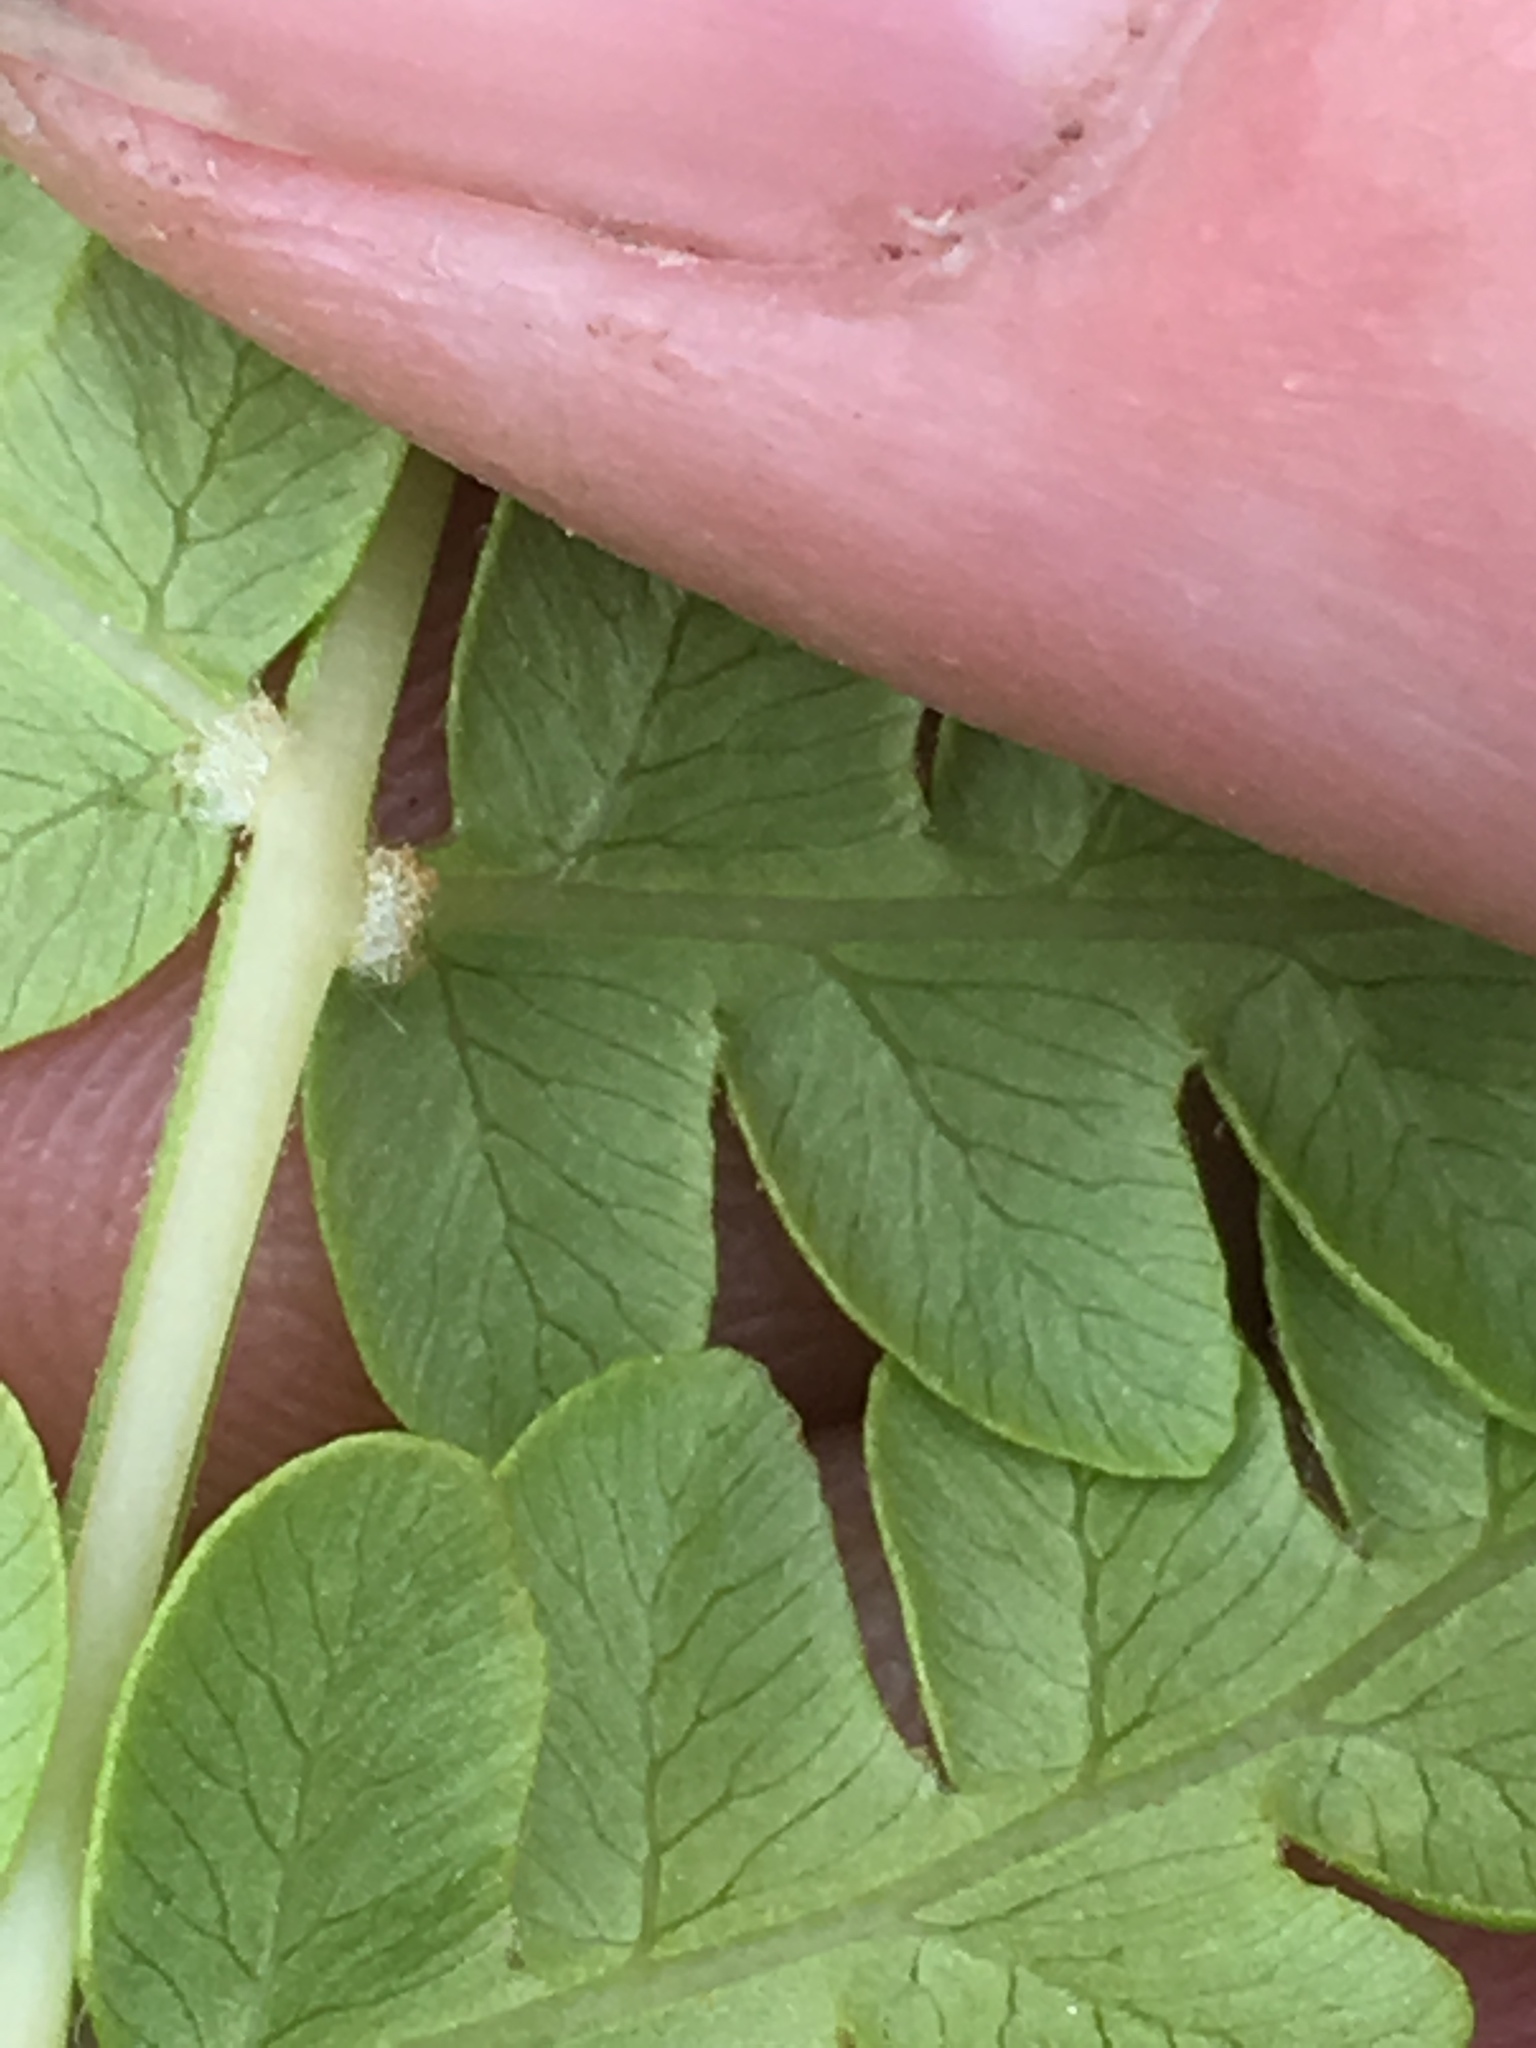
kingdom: Plantae
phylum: Tracheophyta
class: Polypodiopsida
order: Osmundales
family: Osmundaceae
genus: Osmundastrum
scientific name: Osmundastrum cinnamomeum
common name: Cinnamon fern
